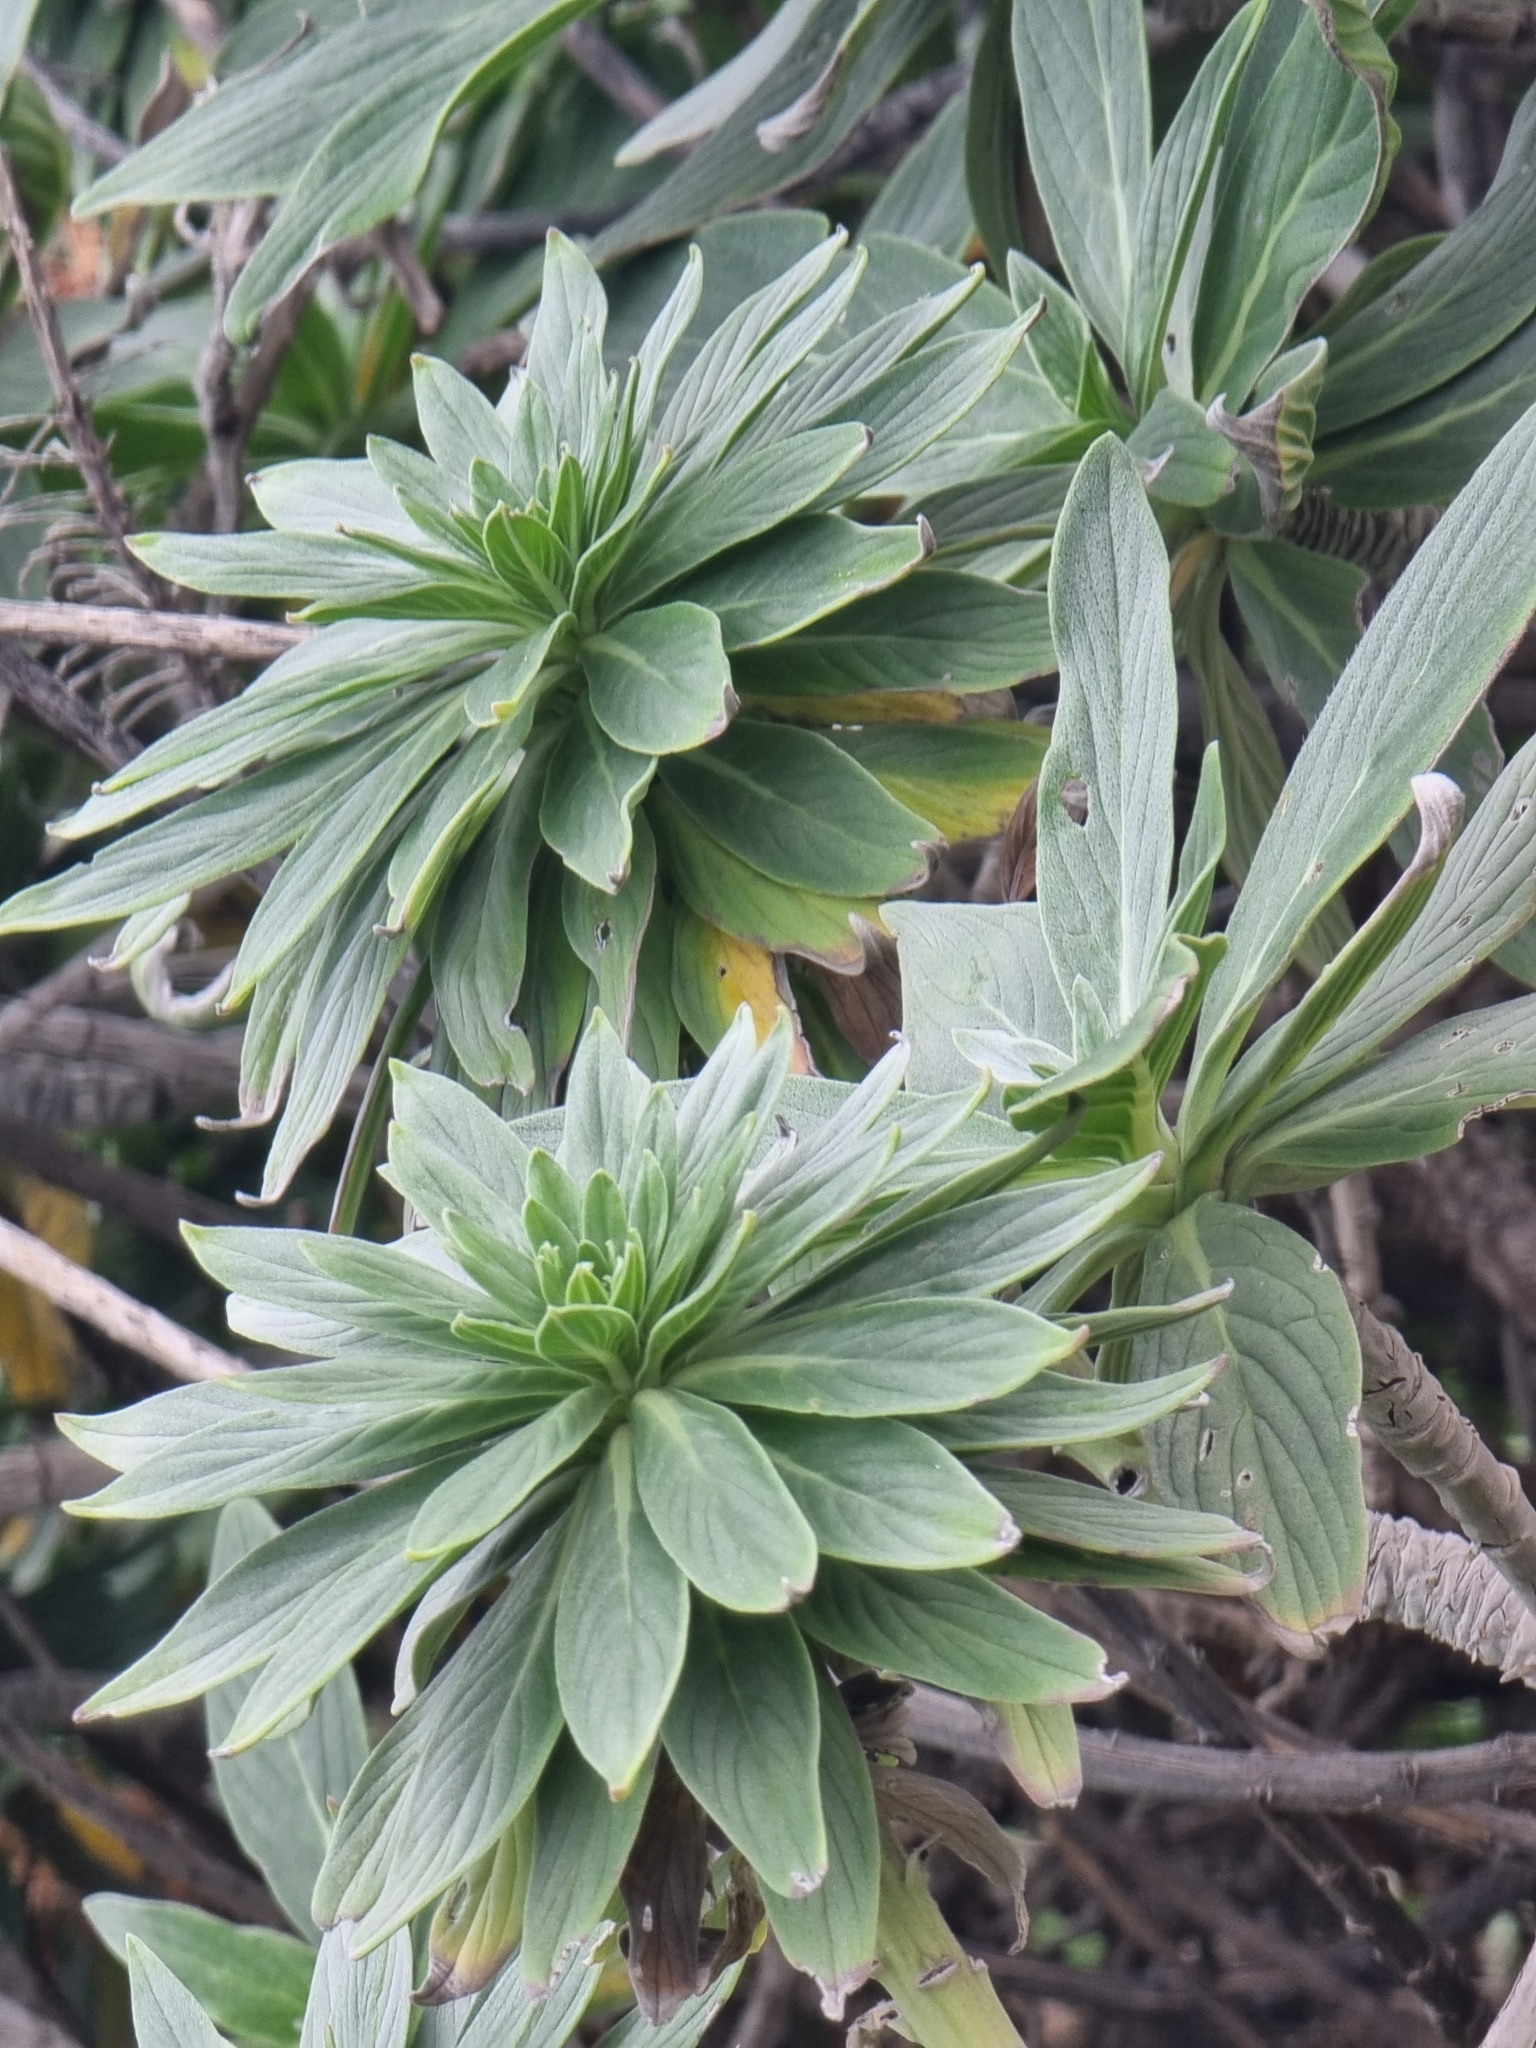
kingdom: Plantae
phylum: Tracheophyta
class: Magnoliopsida
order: Boraginales
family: Boraginaceae
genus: Echium
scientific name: Echium nervosum
